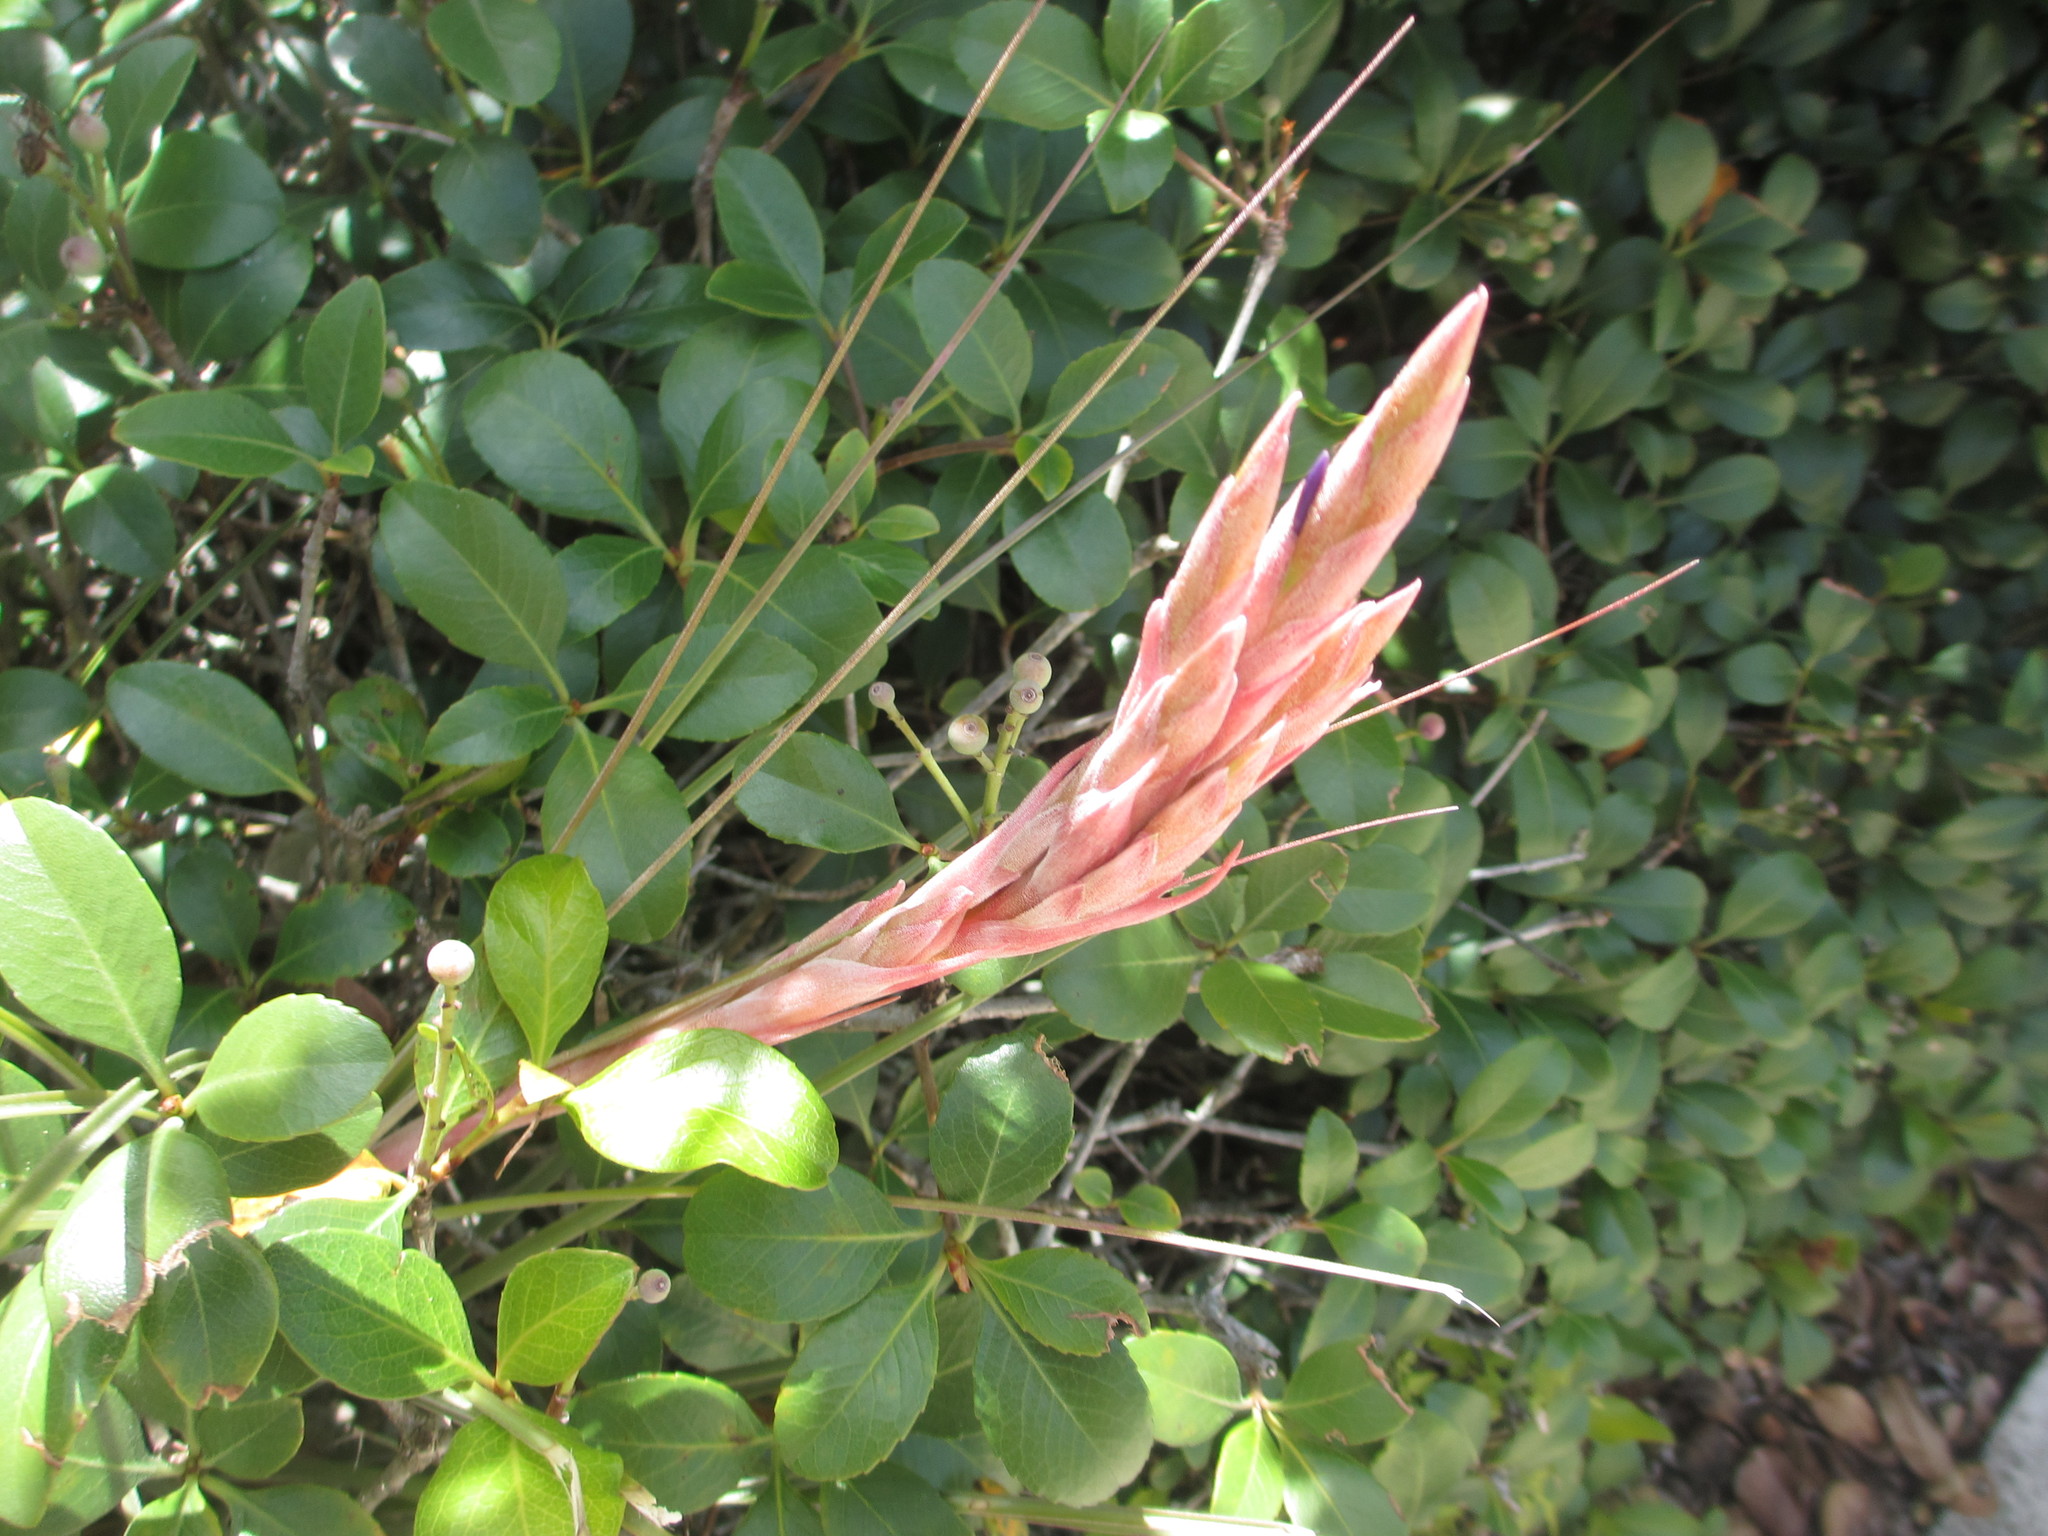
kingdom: Plantae
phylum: Tracheophyta
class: Liliopsida
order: Poales
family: Bromeliaceae
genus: Tillandsia
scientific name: Tillandsia simulata
